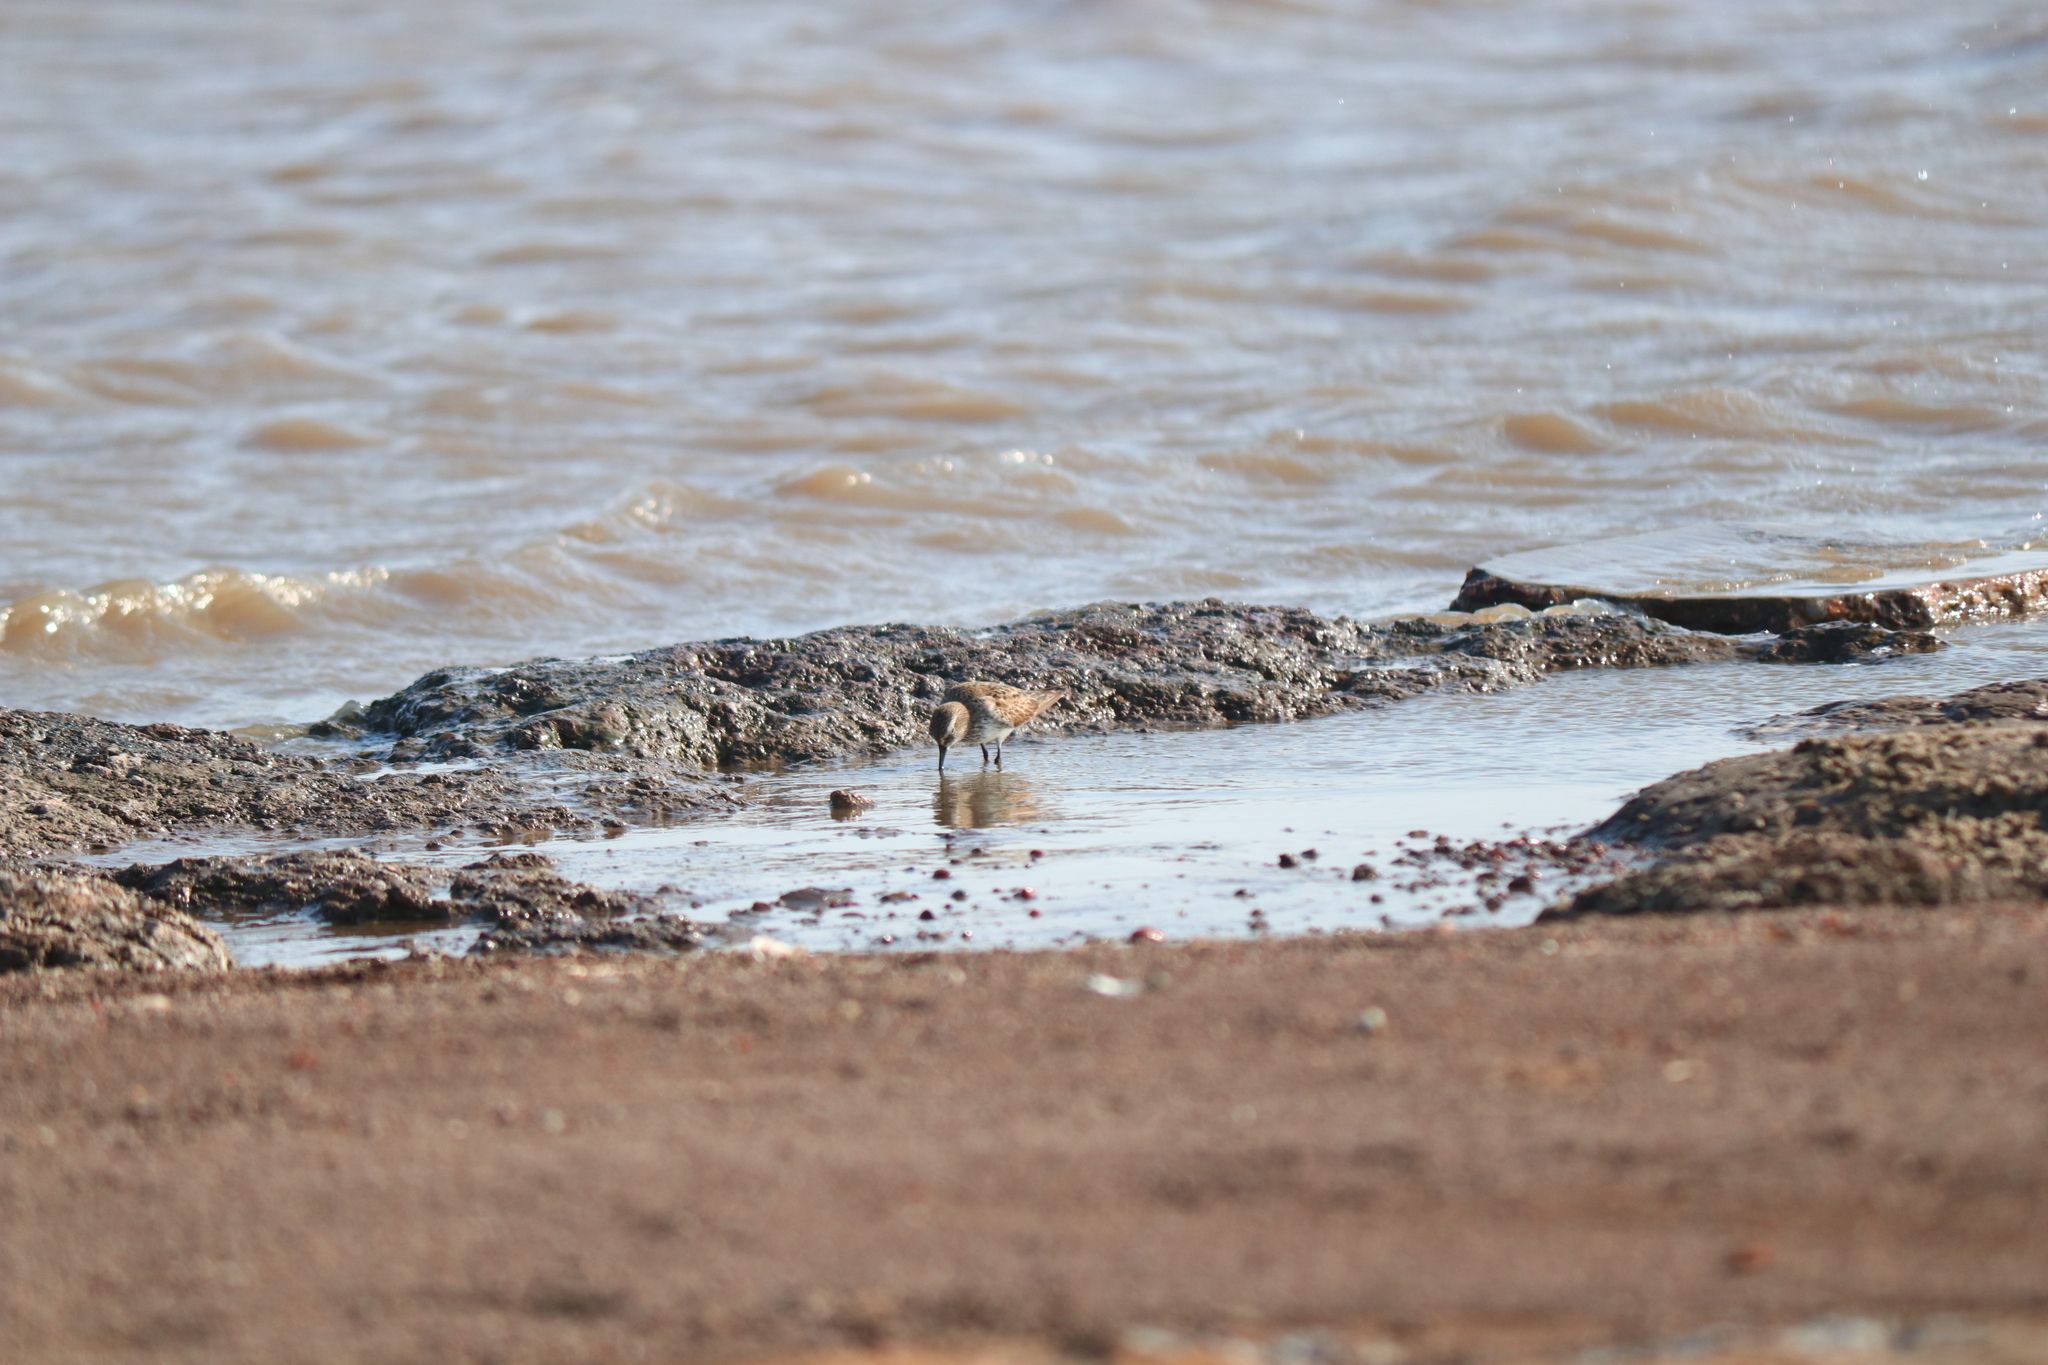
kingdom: Animalia
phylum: Chordata
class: Aves
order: Charadriiformes
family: Scolopacidae
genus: Calidris
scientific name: Calidris fuscicollis
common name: White-rumped sandpiper
